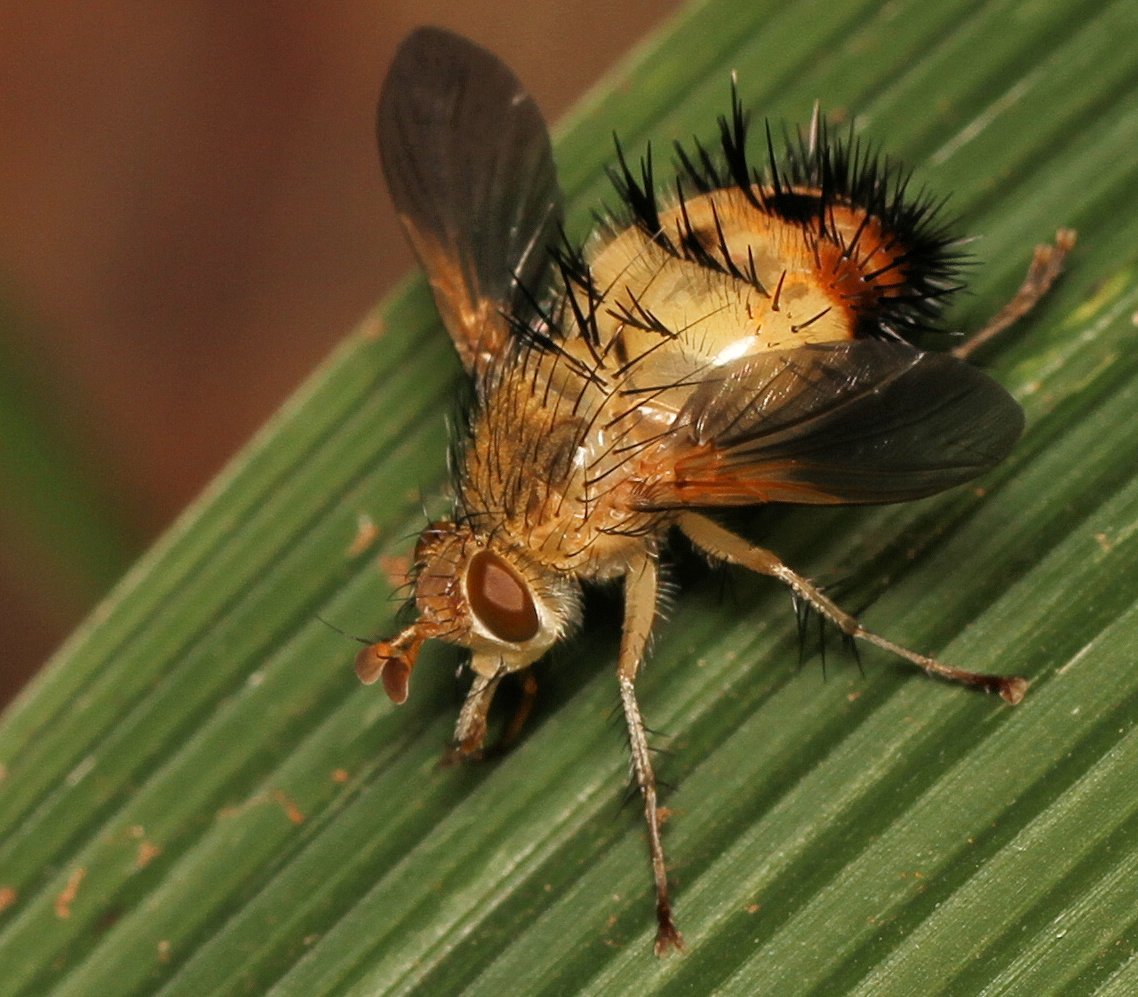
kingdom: Animalia
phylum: Arthropoda
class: Insecta
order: Diptera
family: Tachinidae
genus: Dejeania
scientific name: Dejeania bombylans
